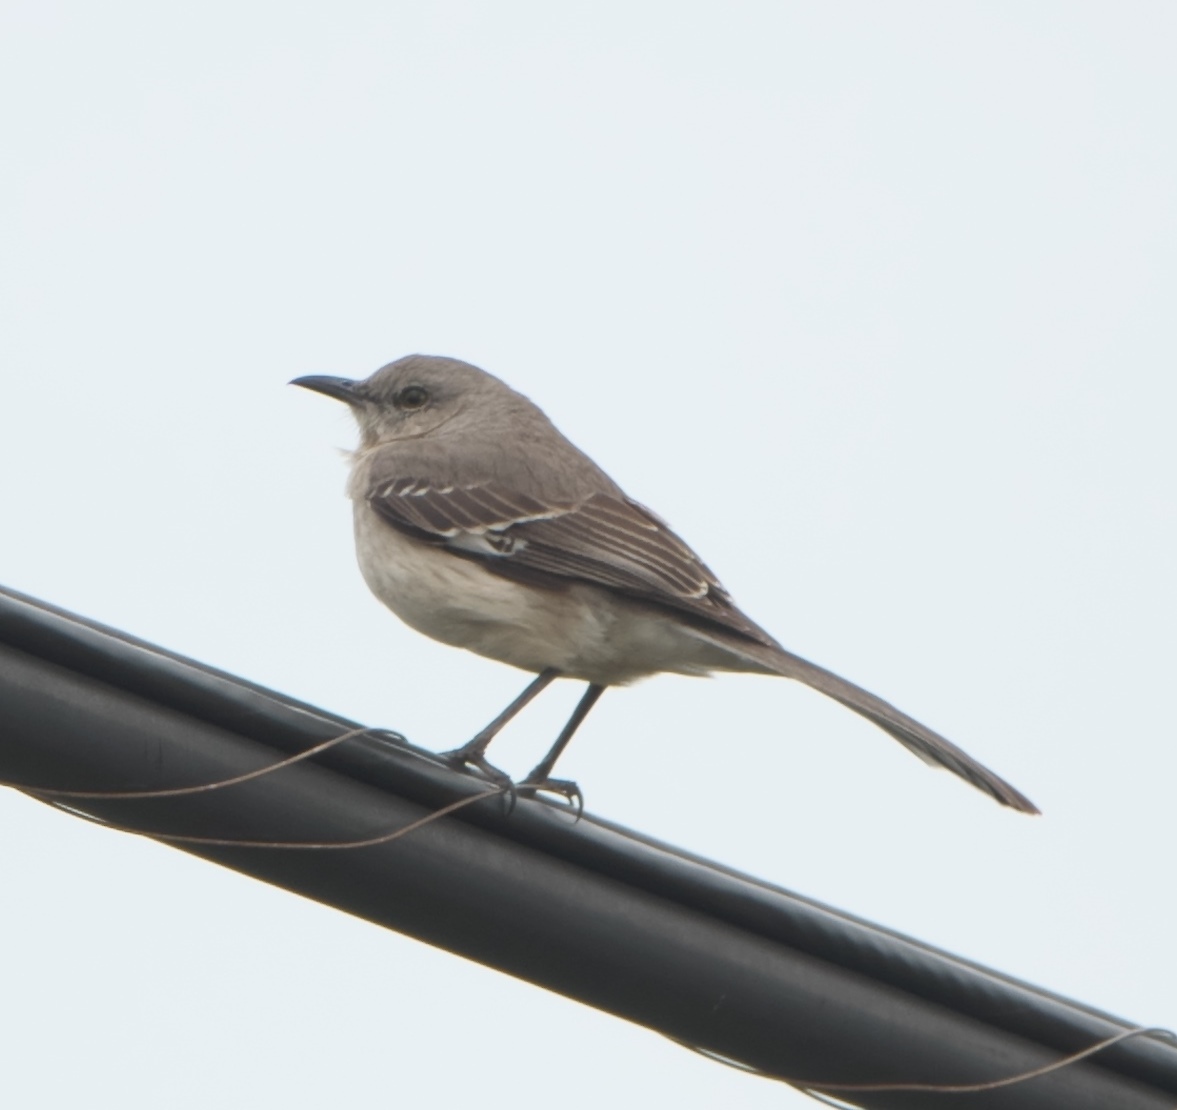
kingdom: Animalia
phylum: Chordata
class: Aves
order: Passeriformes
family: Mimidae
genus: Mimus
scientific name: Mimus polyglottos
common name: Northern mockingbird
